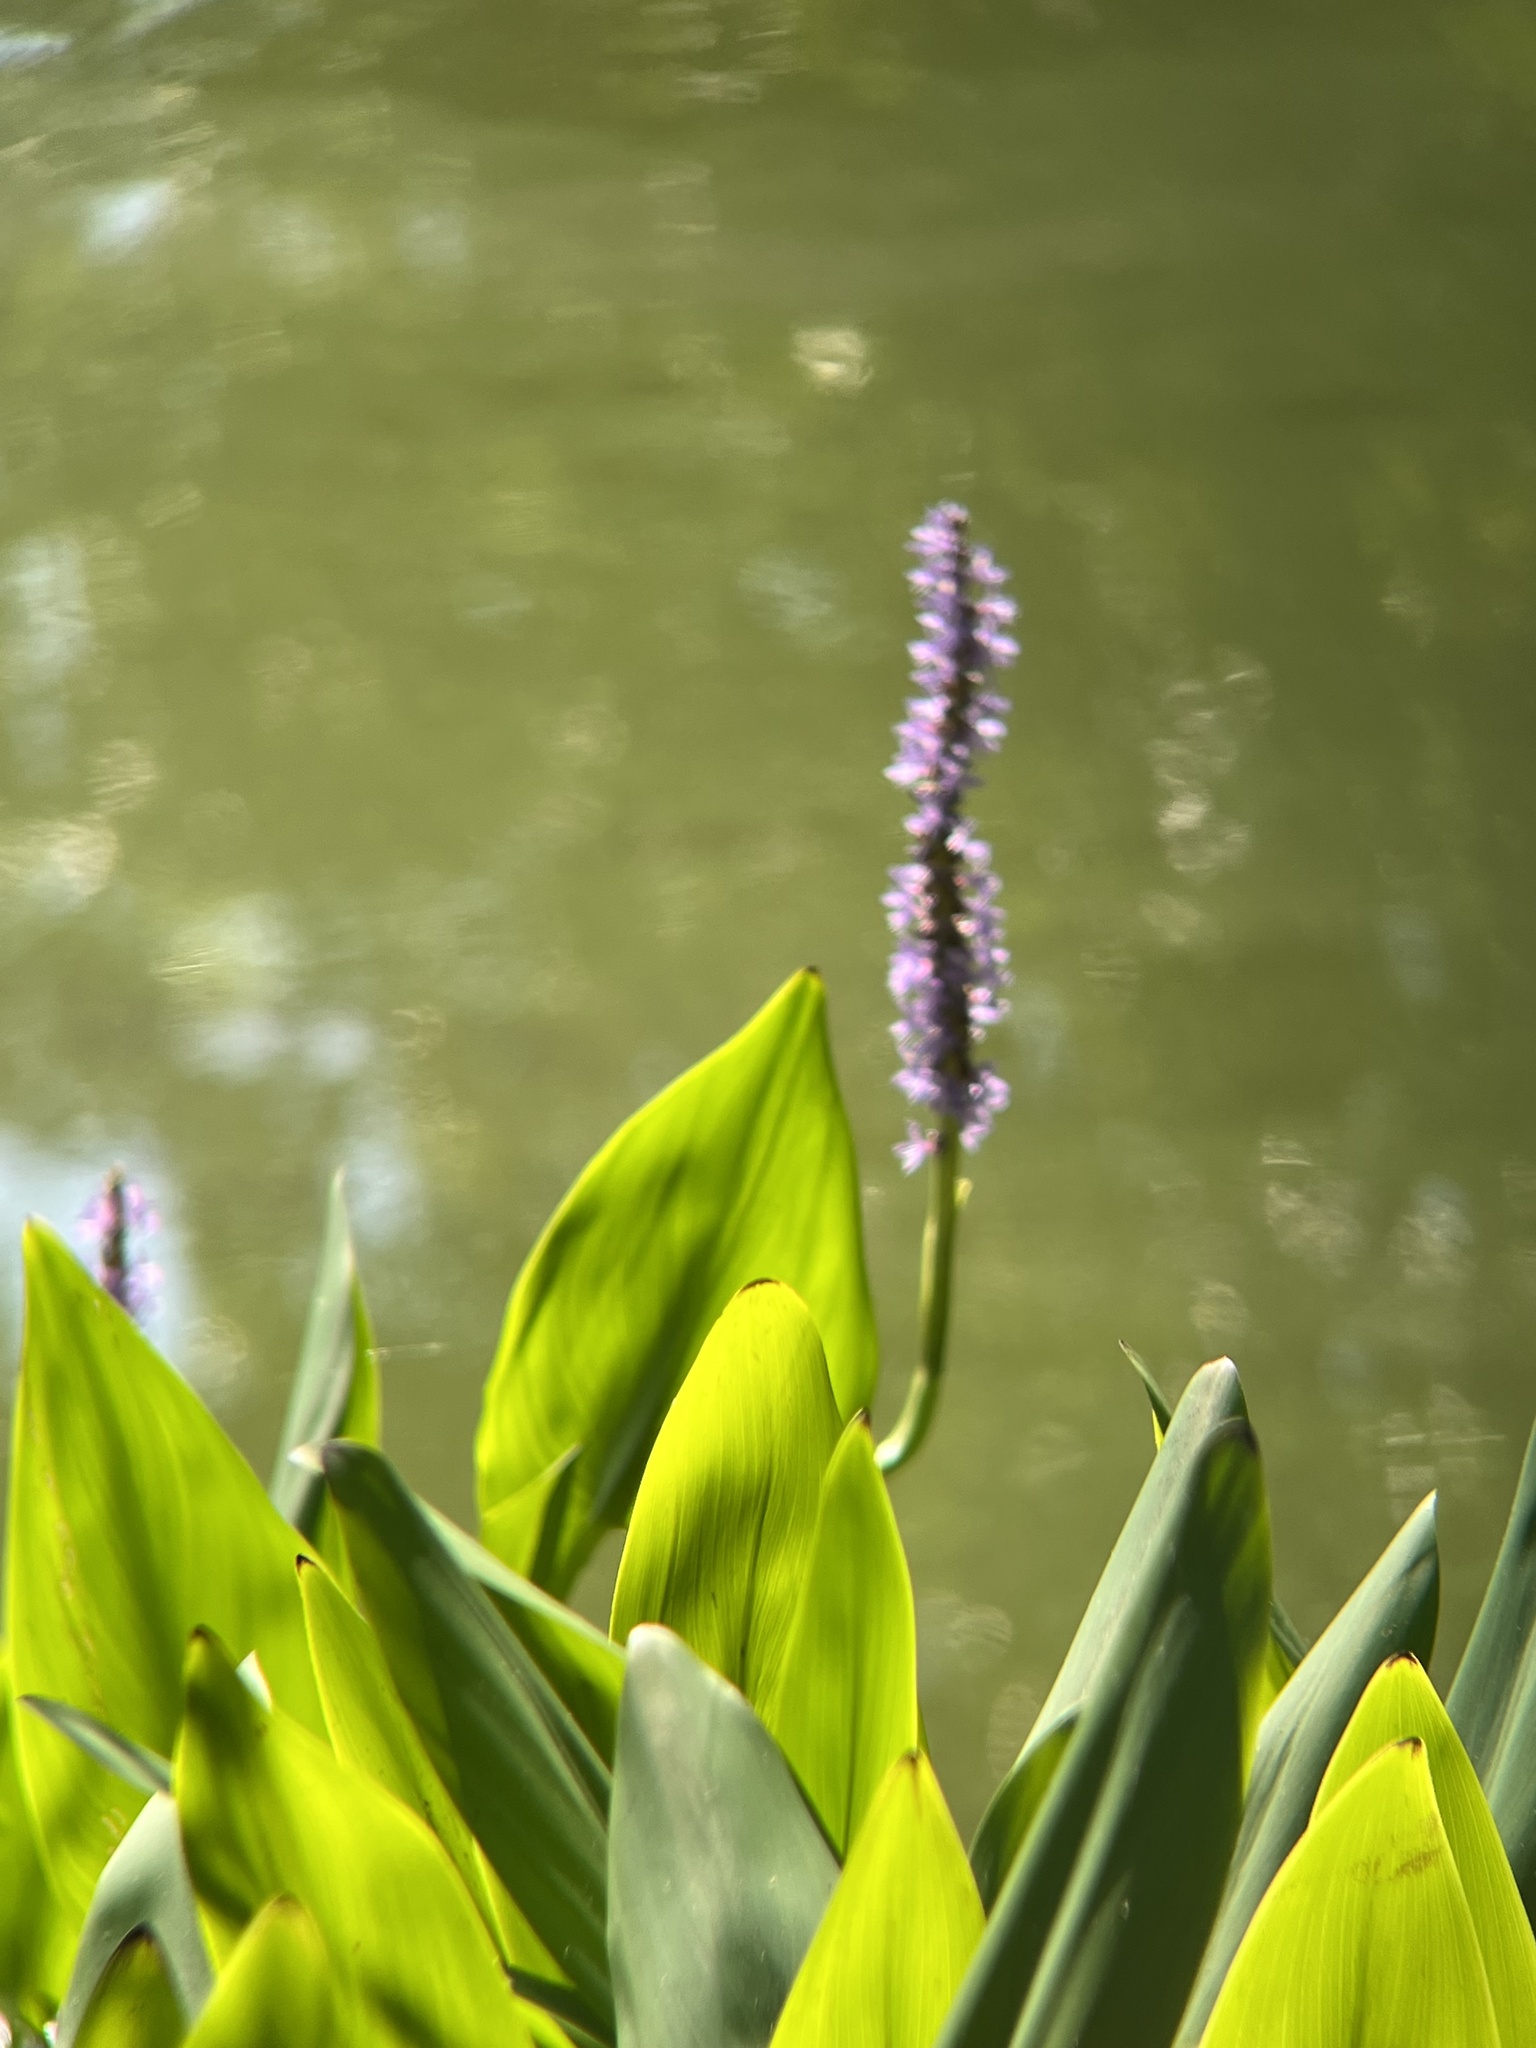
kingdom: Plantae
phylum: Tracheophyta
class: Liliopsida
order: Commelinales
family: Pontederiaceae
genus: Pontederia
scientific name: Pontederia cordata
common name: Pickerelweed
